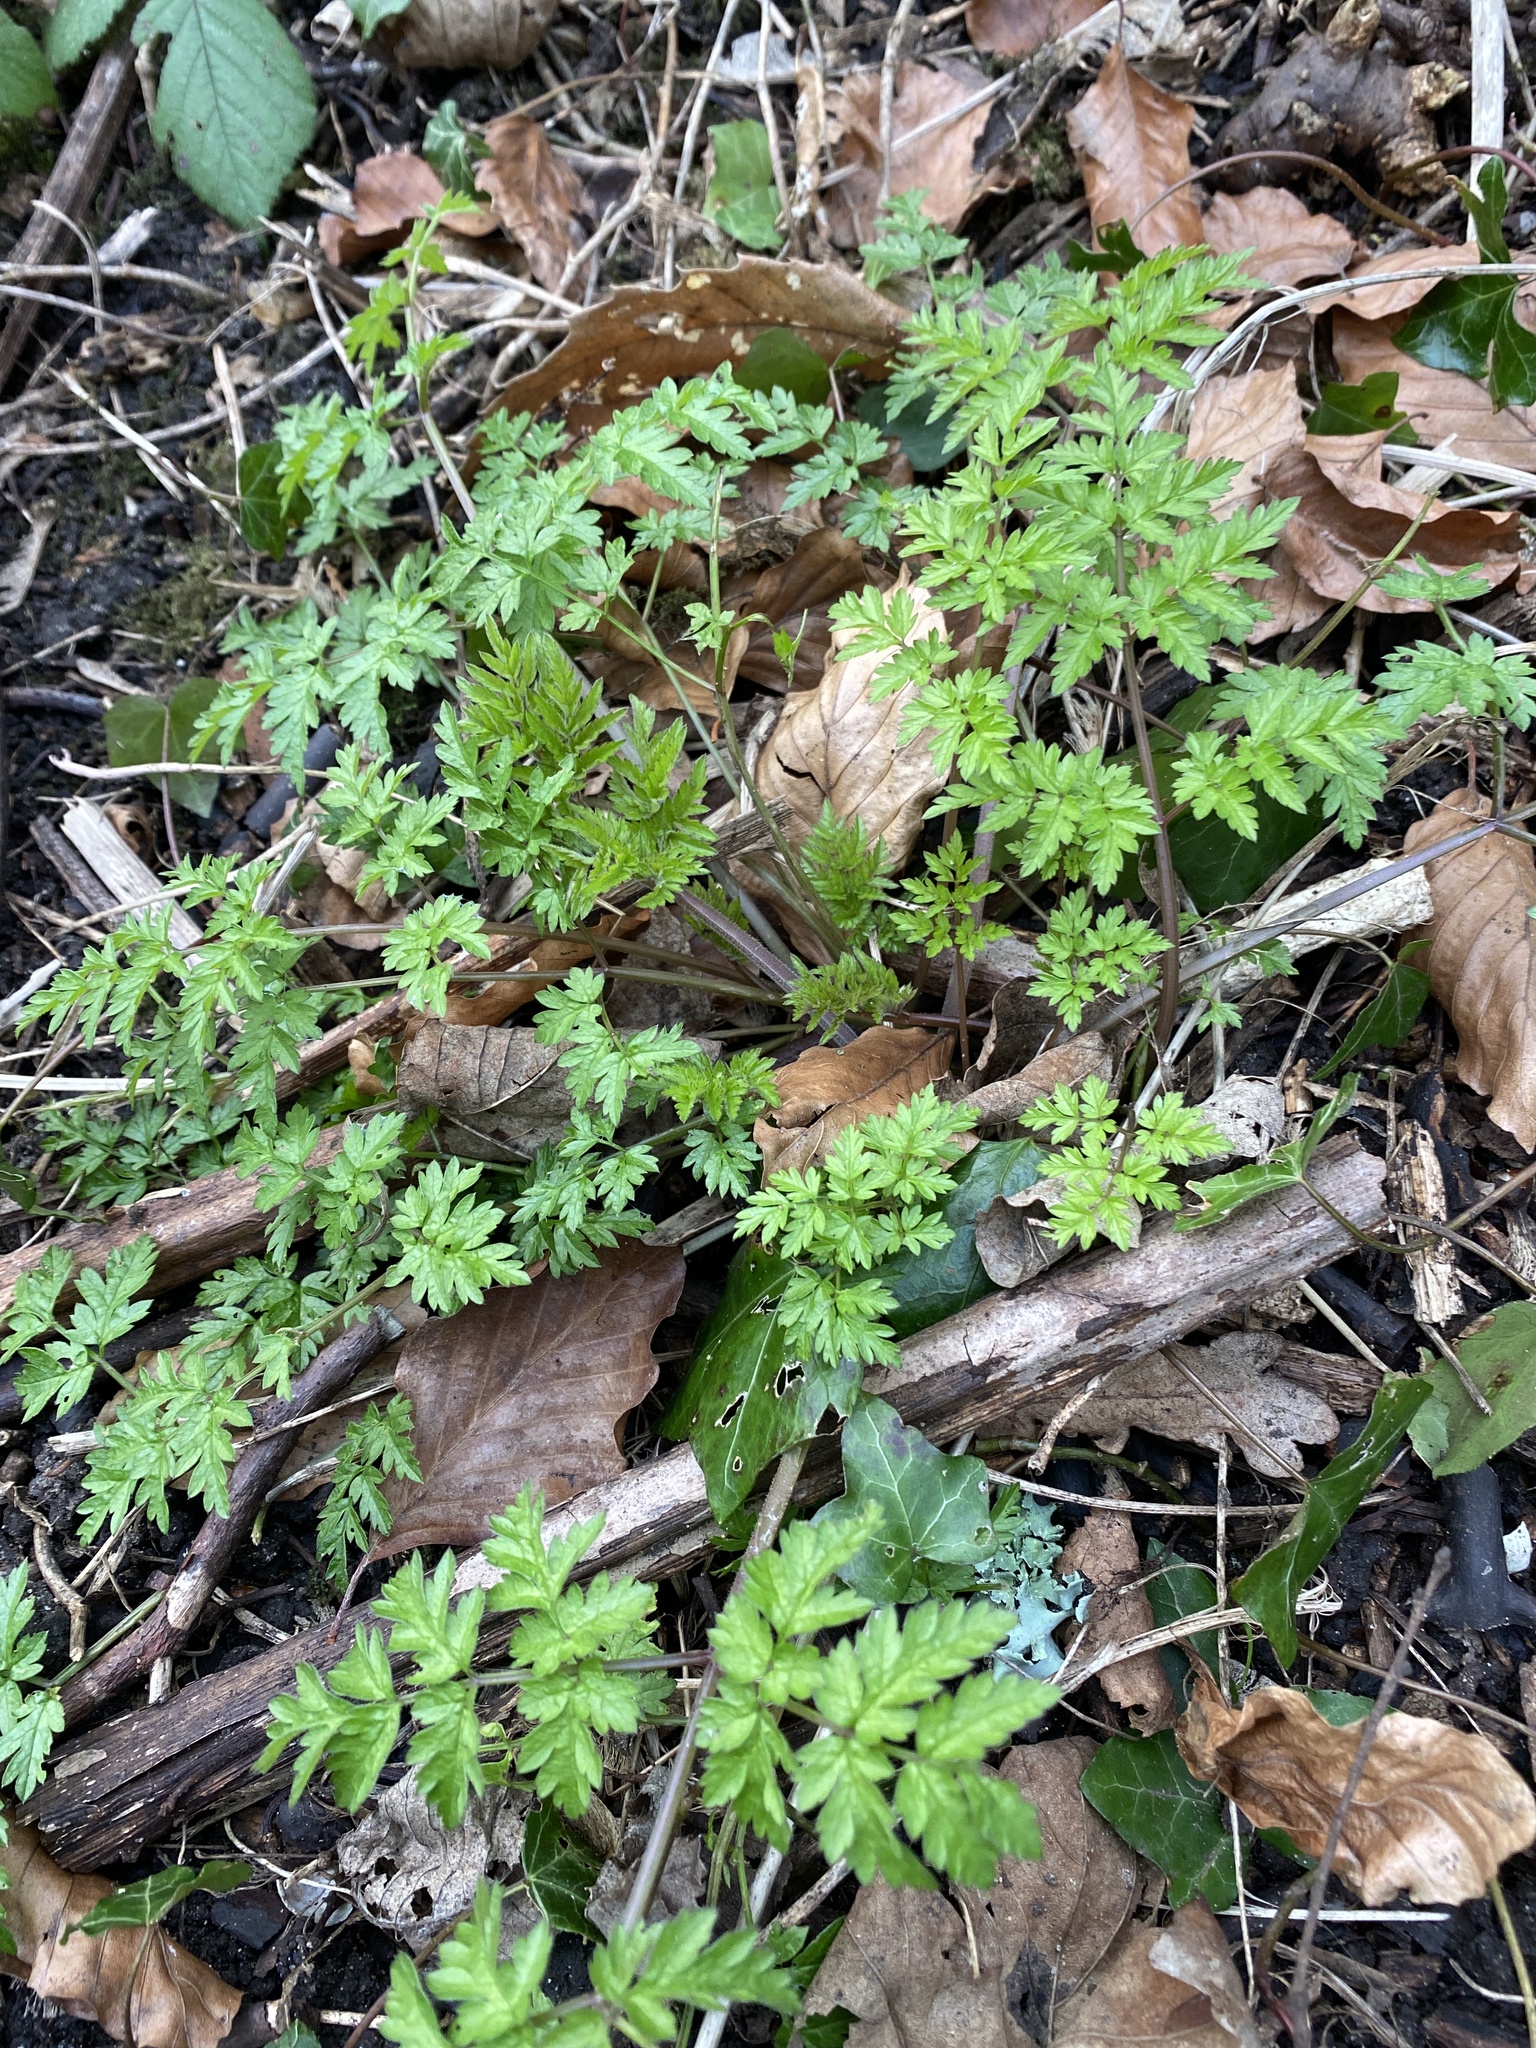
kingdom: Plantae
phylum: Tracheophyta
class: Magnoliopsida
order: Apiales
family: Apiaceae
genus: Anthriscus
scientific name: Anthriscus sylvestris
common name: Cow parsley
